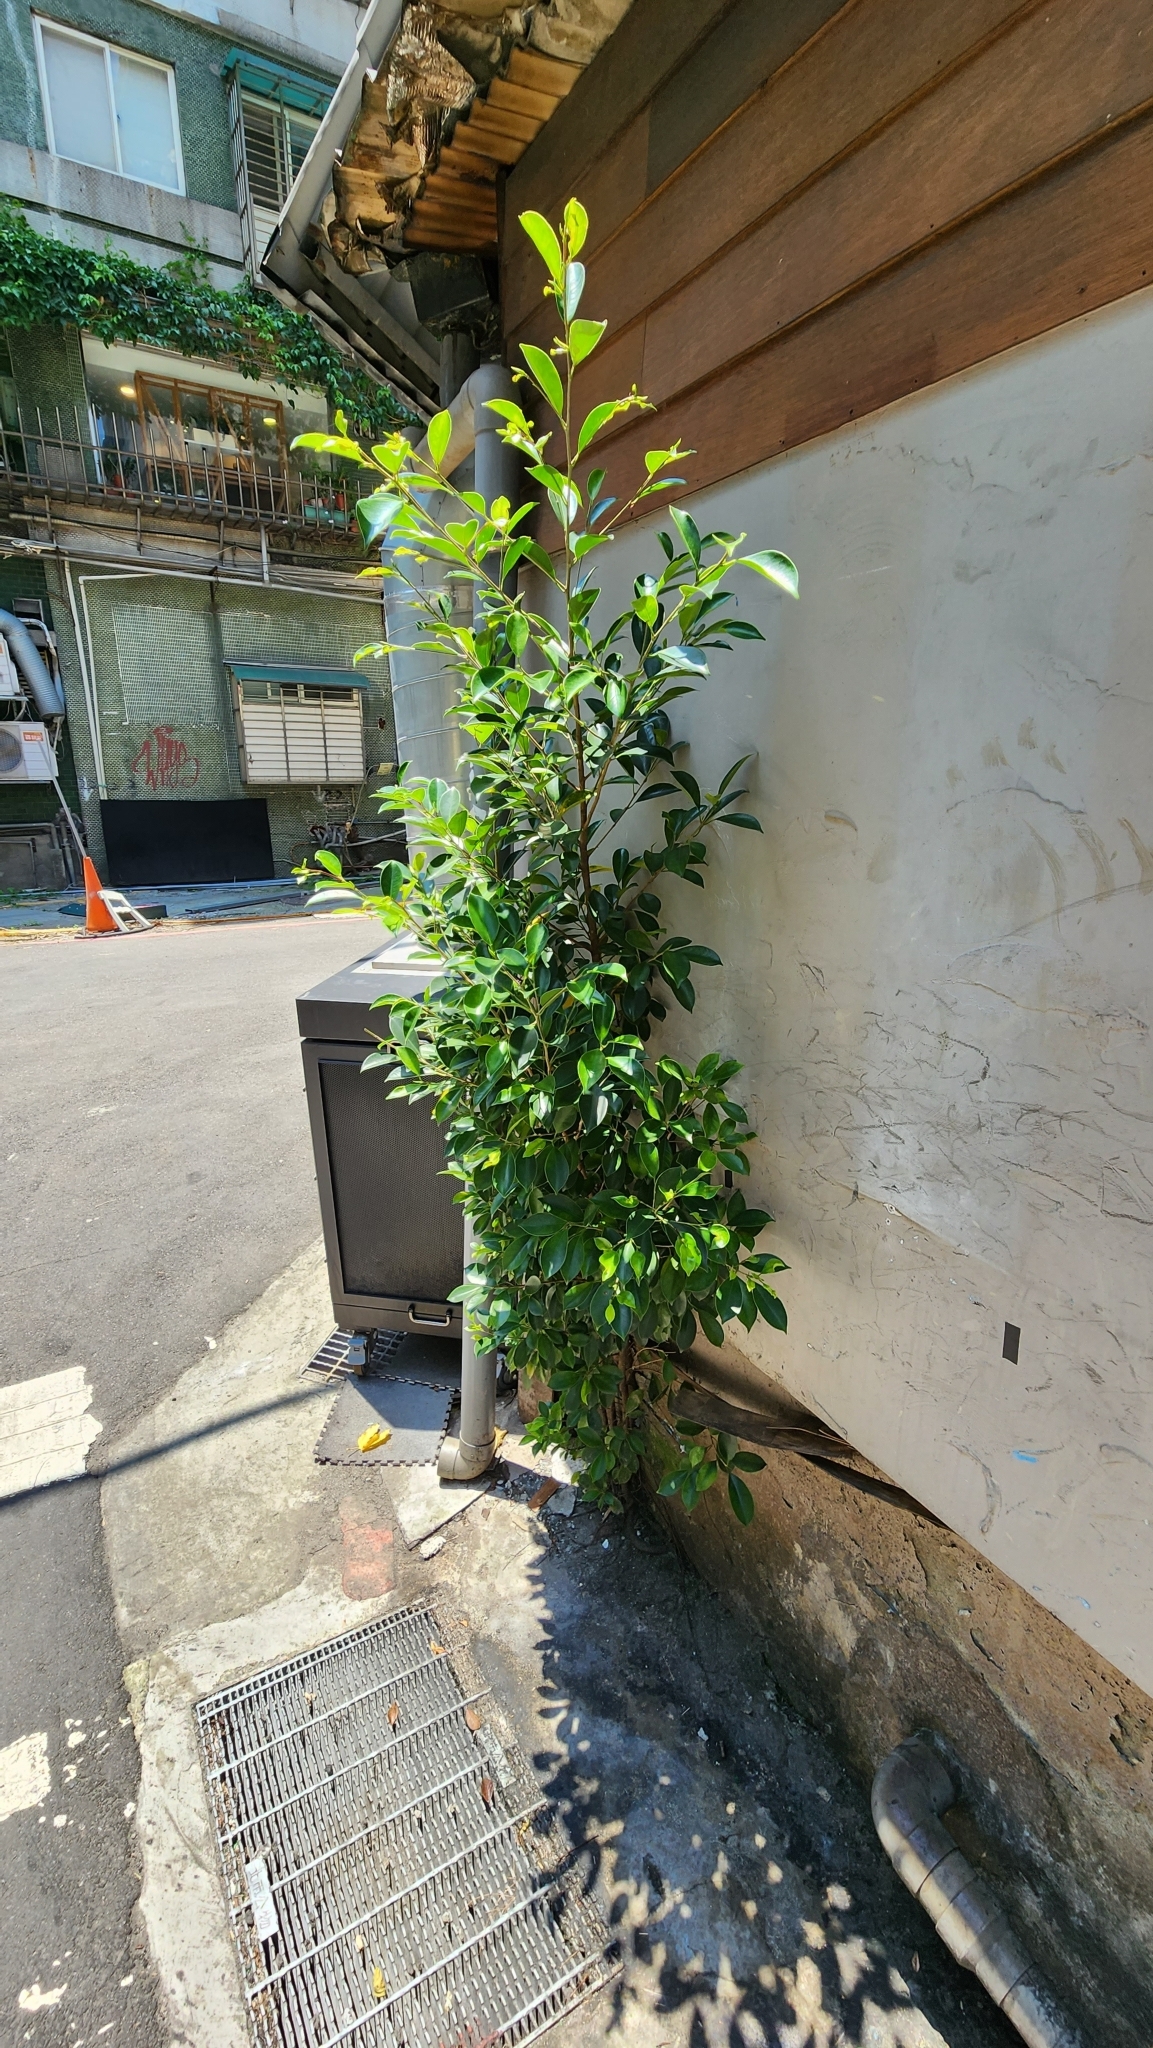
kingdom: Plantae
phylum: Tracheophyta
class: Magnoliopsida
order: Rosales
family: Moraceae
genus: Ficus
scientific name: Ficus microcarpa
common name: Chinese banyan
